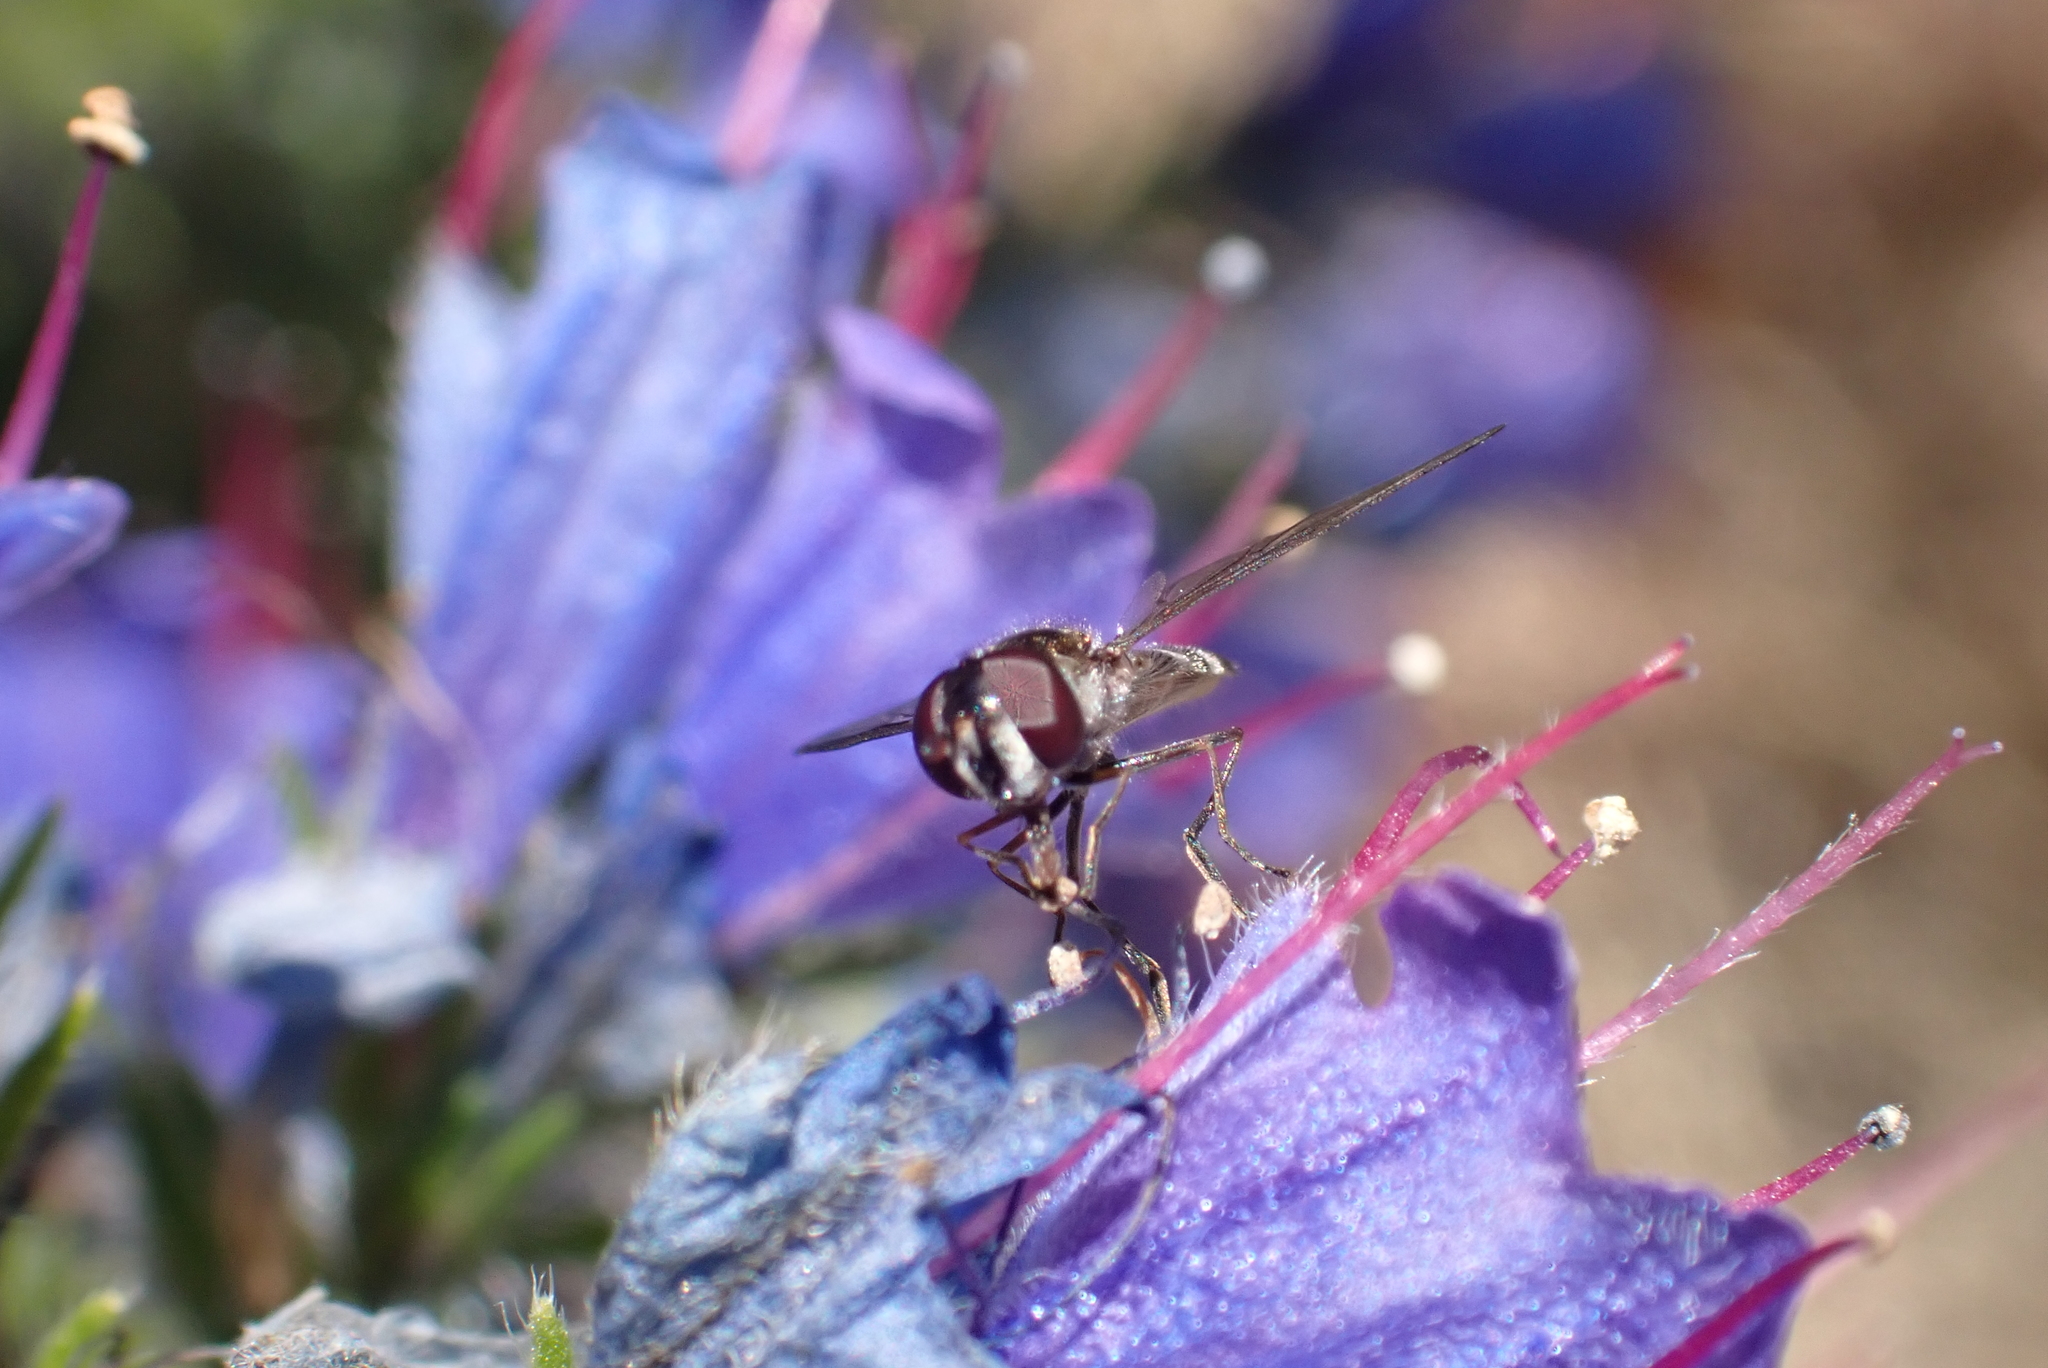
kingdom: Animalia
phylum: Arthropoda
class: Insecta
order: Diptera
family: Syrphidae
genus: Melangyna
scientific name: Melangyna novaezelandiae
